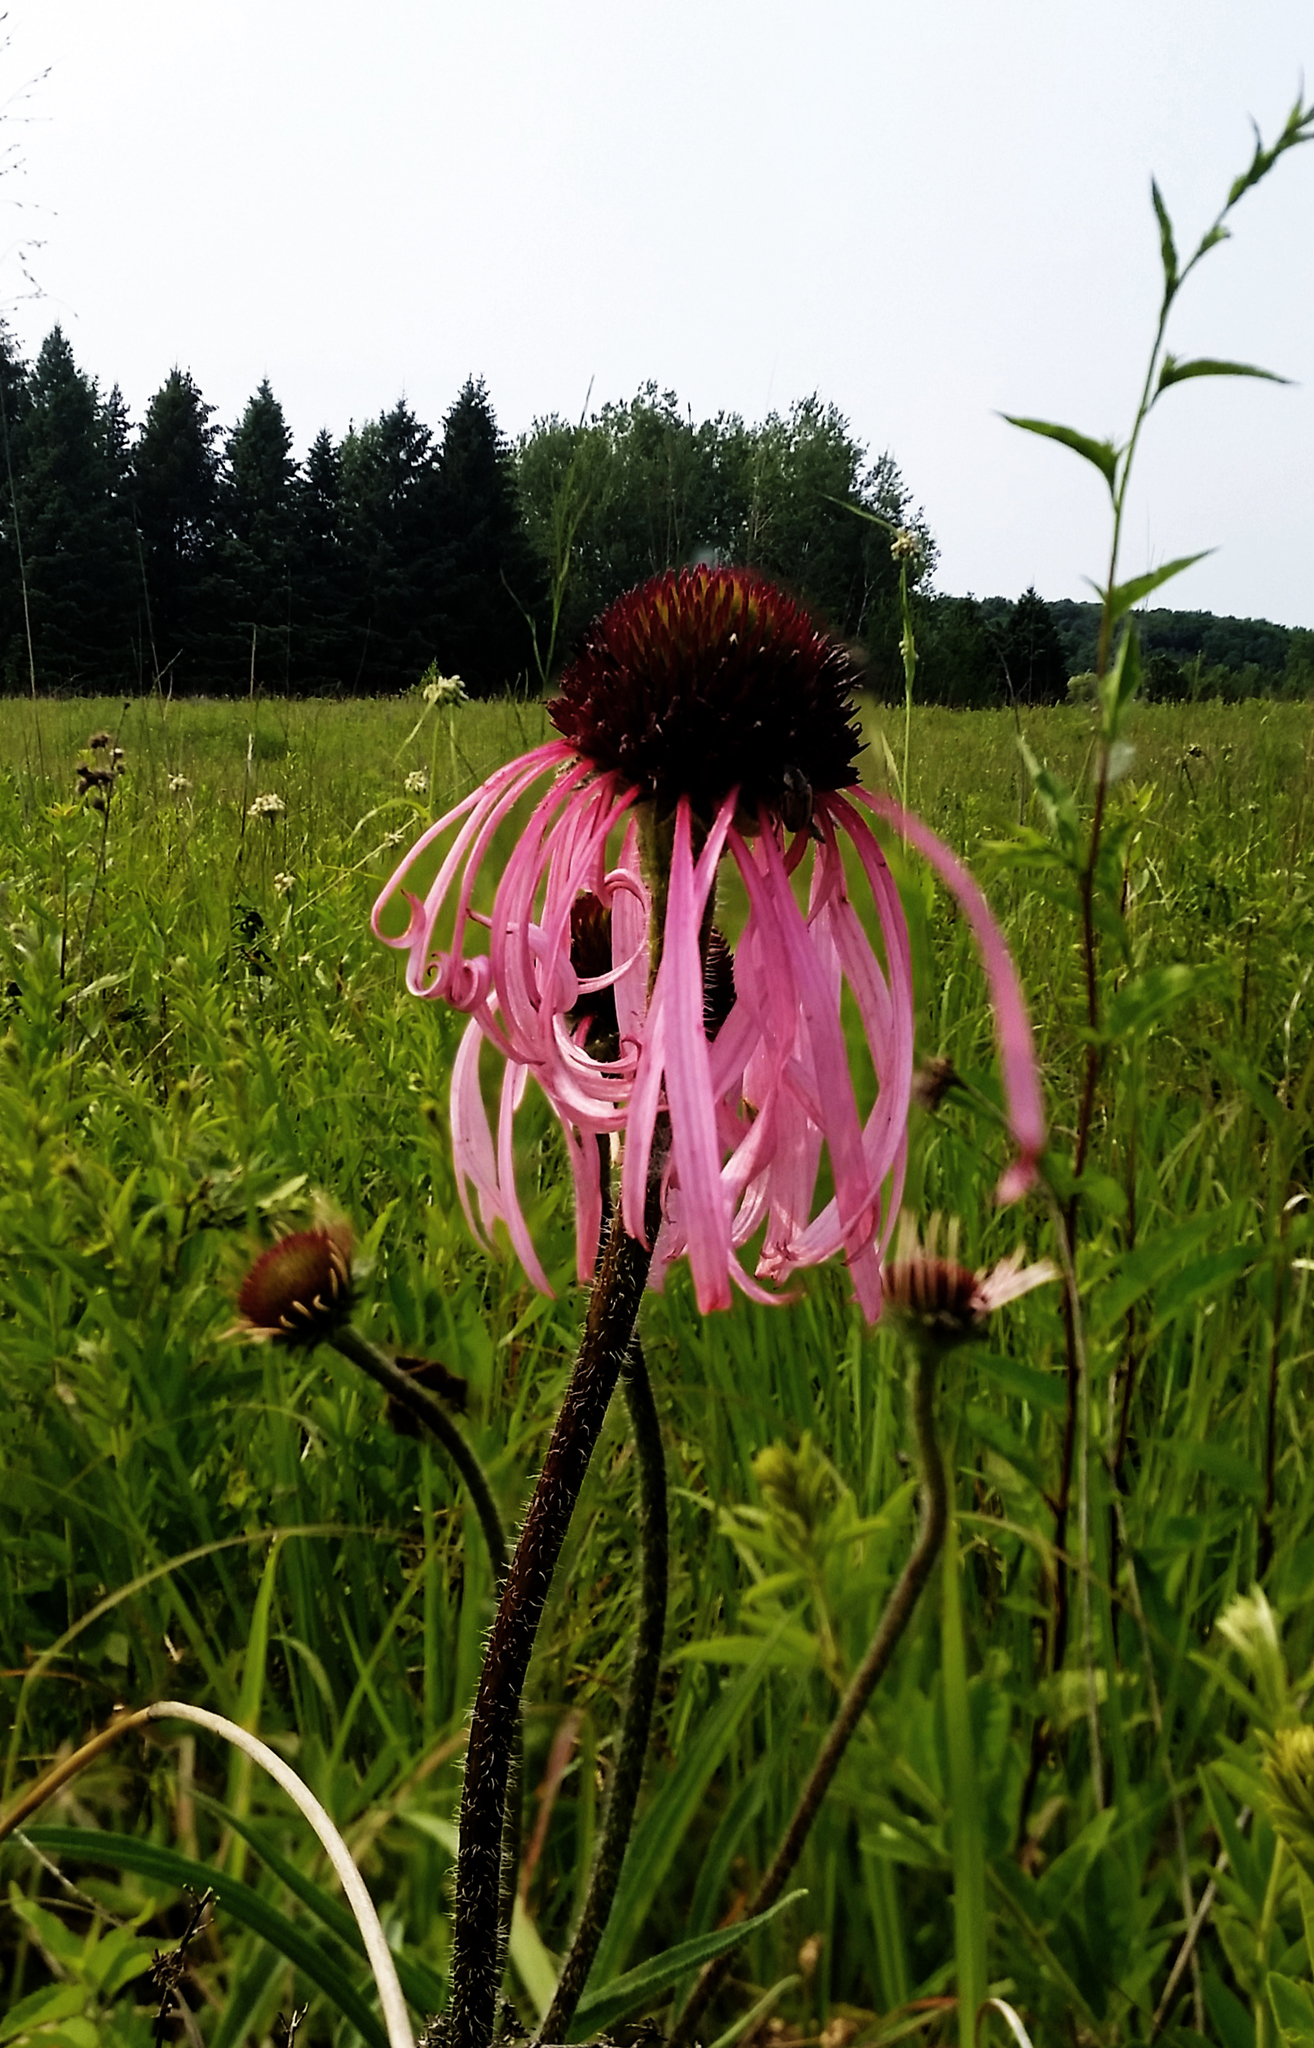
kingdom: Plantae
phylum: Tracheophyta
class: Magnoliopsida
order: Asterales
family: Asteraceae
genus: Echinacea
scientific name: Echinacea pallida
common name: Pale echinacea
